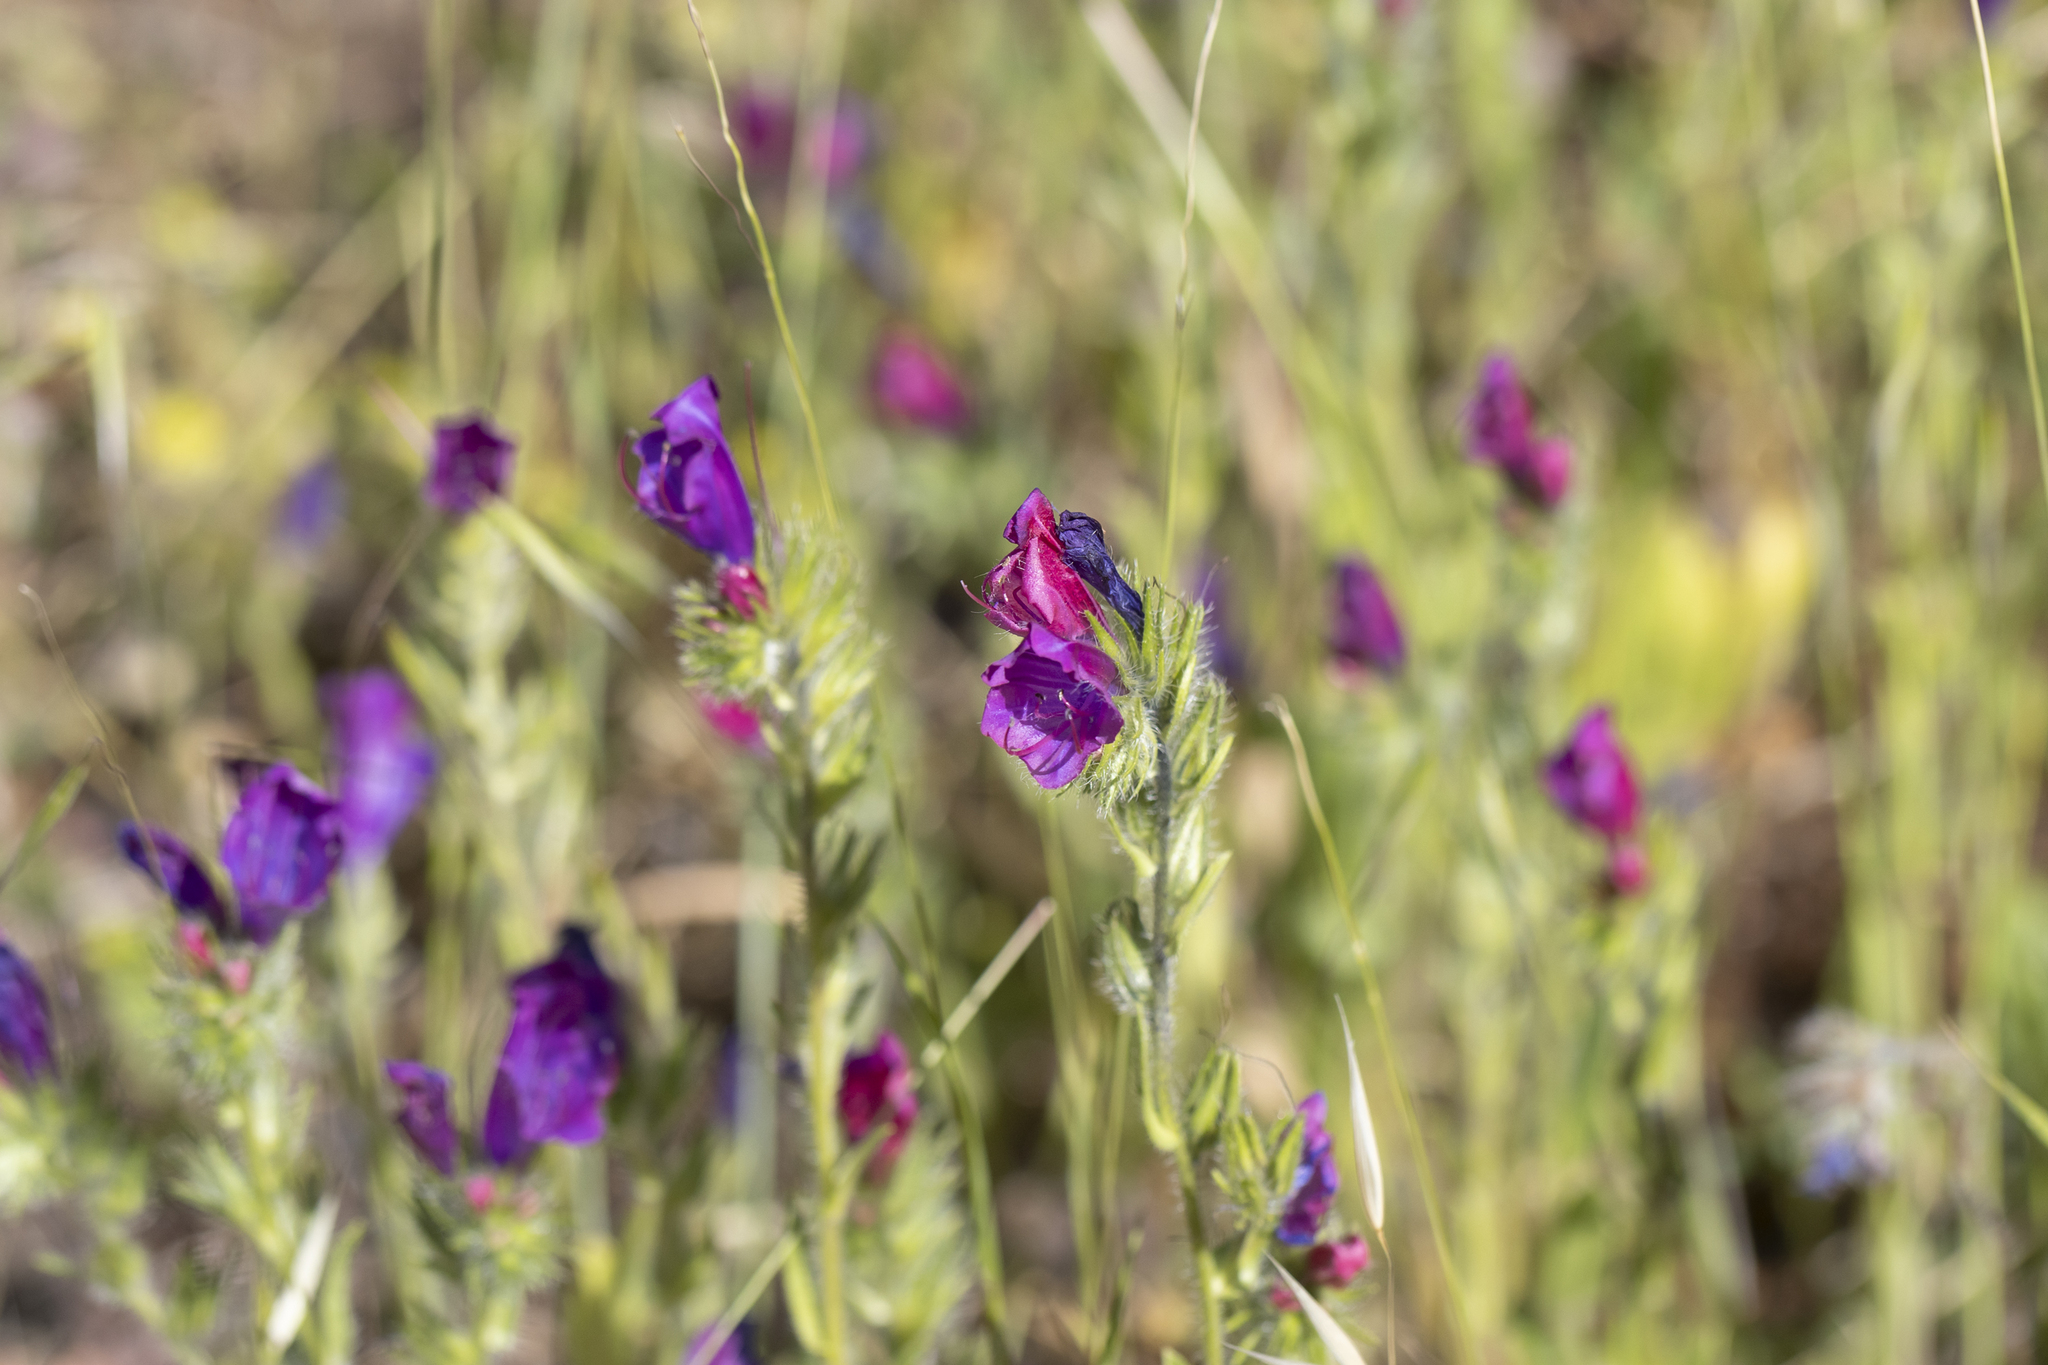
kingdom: Plantae
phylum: Tracheophyta
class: Magnoliopsida
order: Boraginales
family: Boraginaceae
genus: Echium
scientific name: Echium plantagineum
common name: Purple viper's-bugloss
